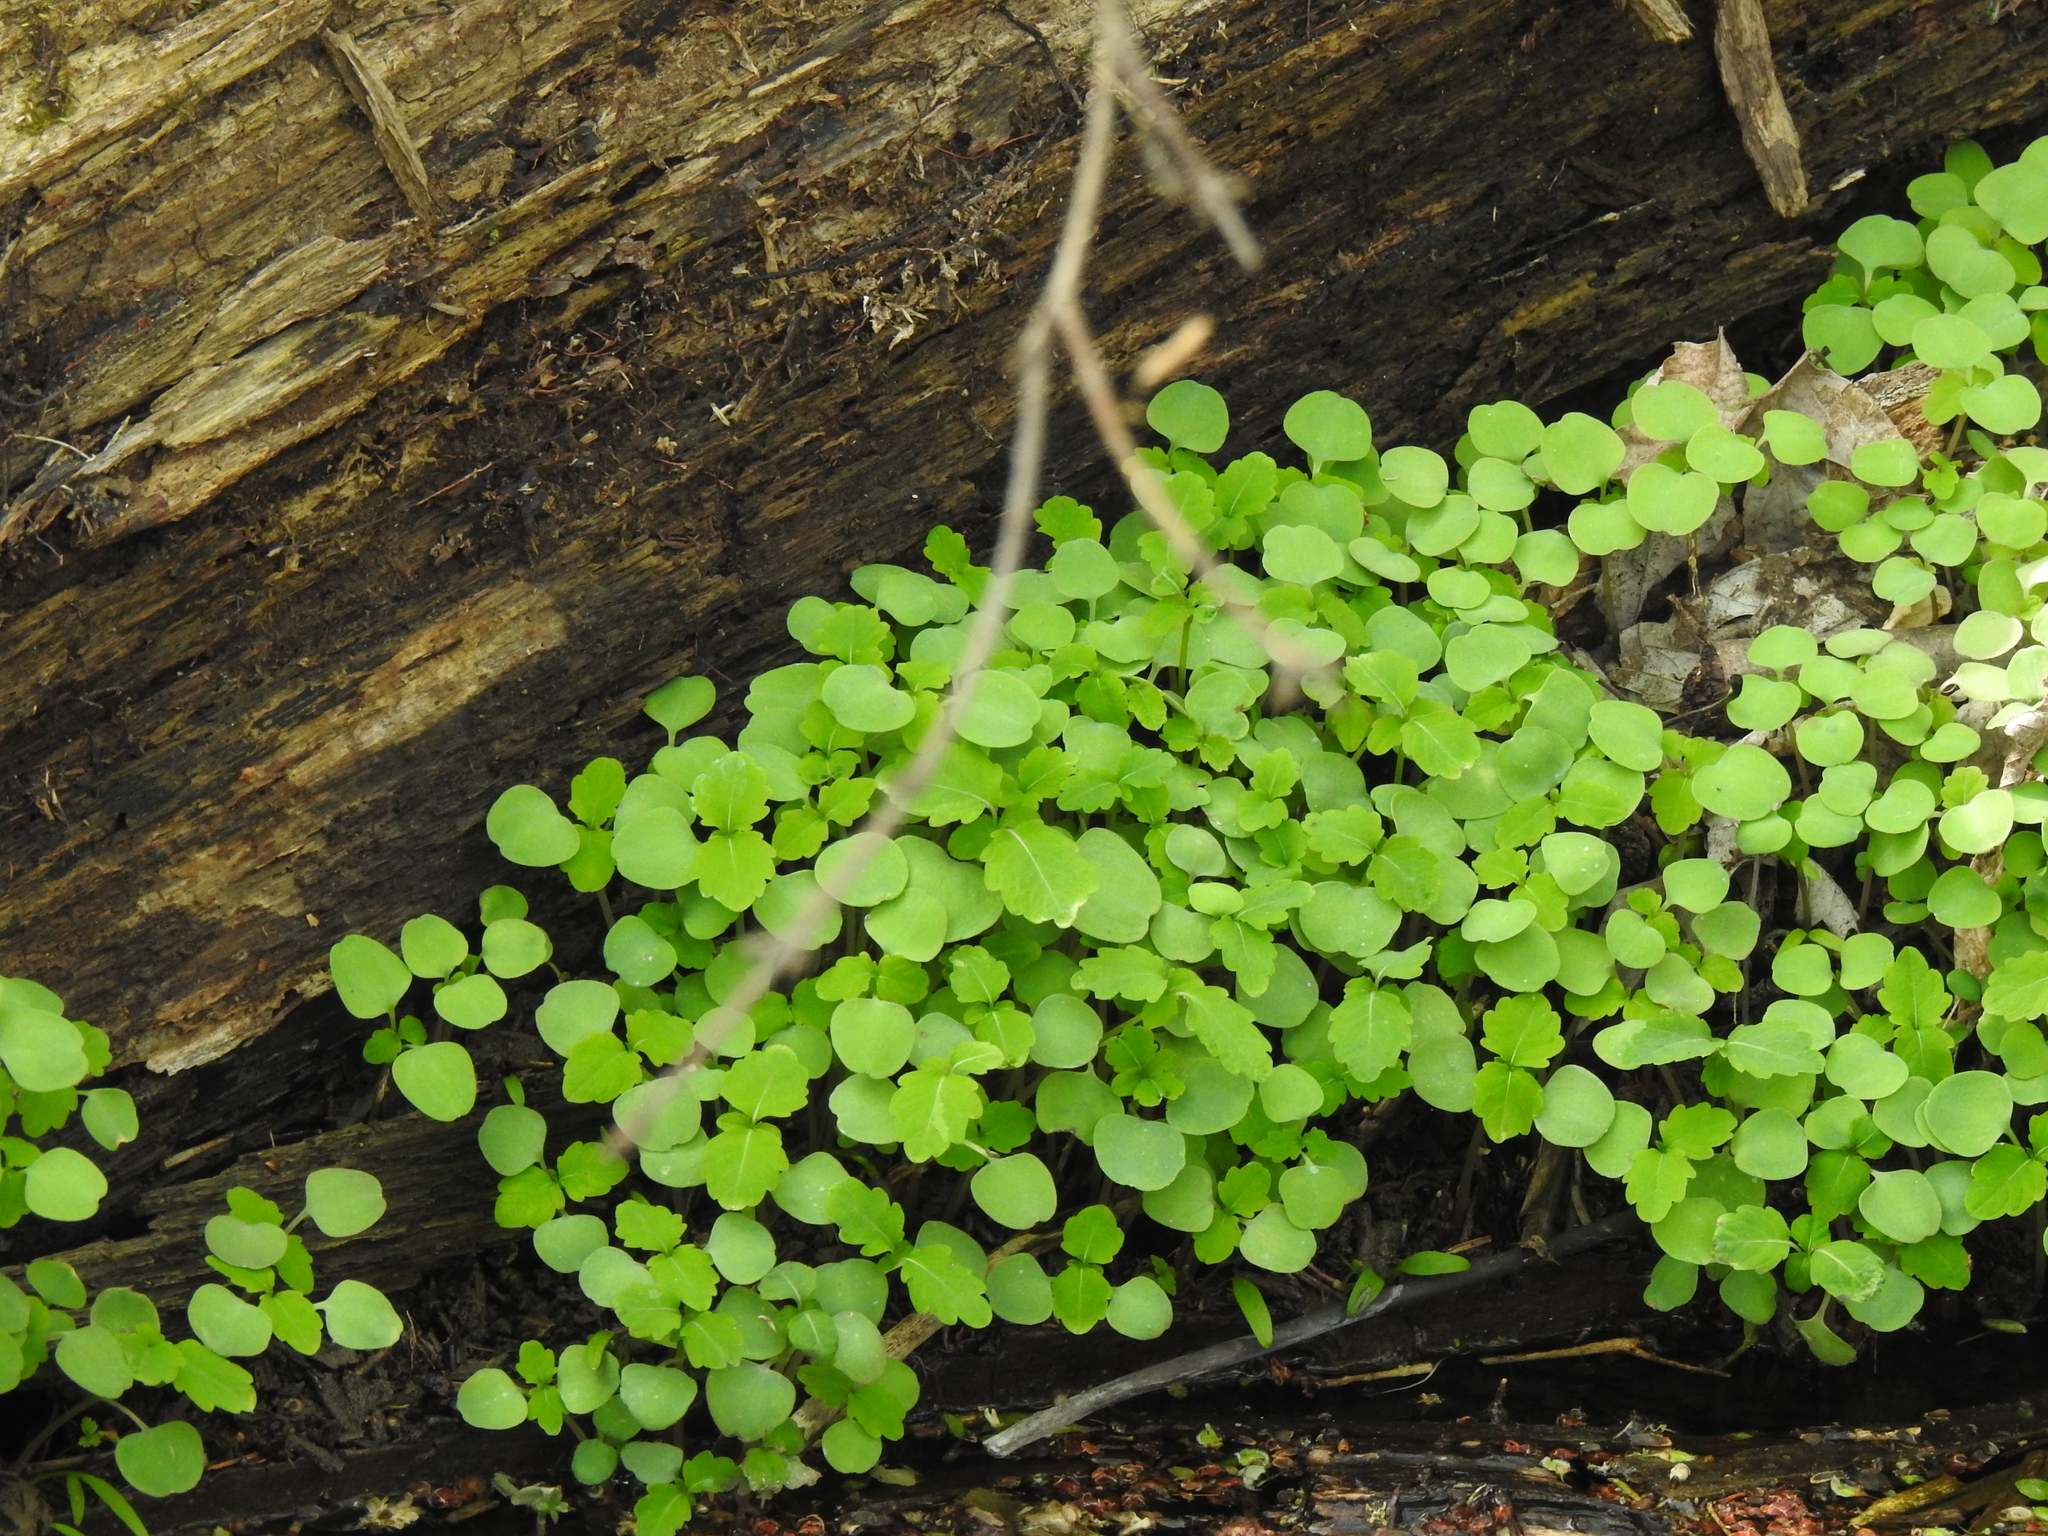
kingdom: Plantae
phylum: Tracheophyta
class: Magnoliopsida
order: Ericales
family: Balsaminaceae
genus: Impatiens
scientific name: Impatiens
